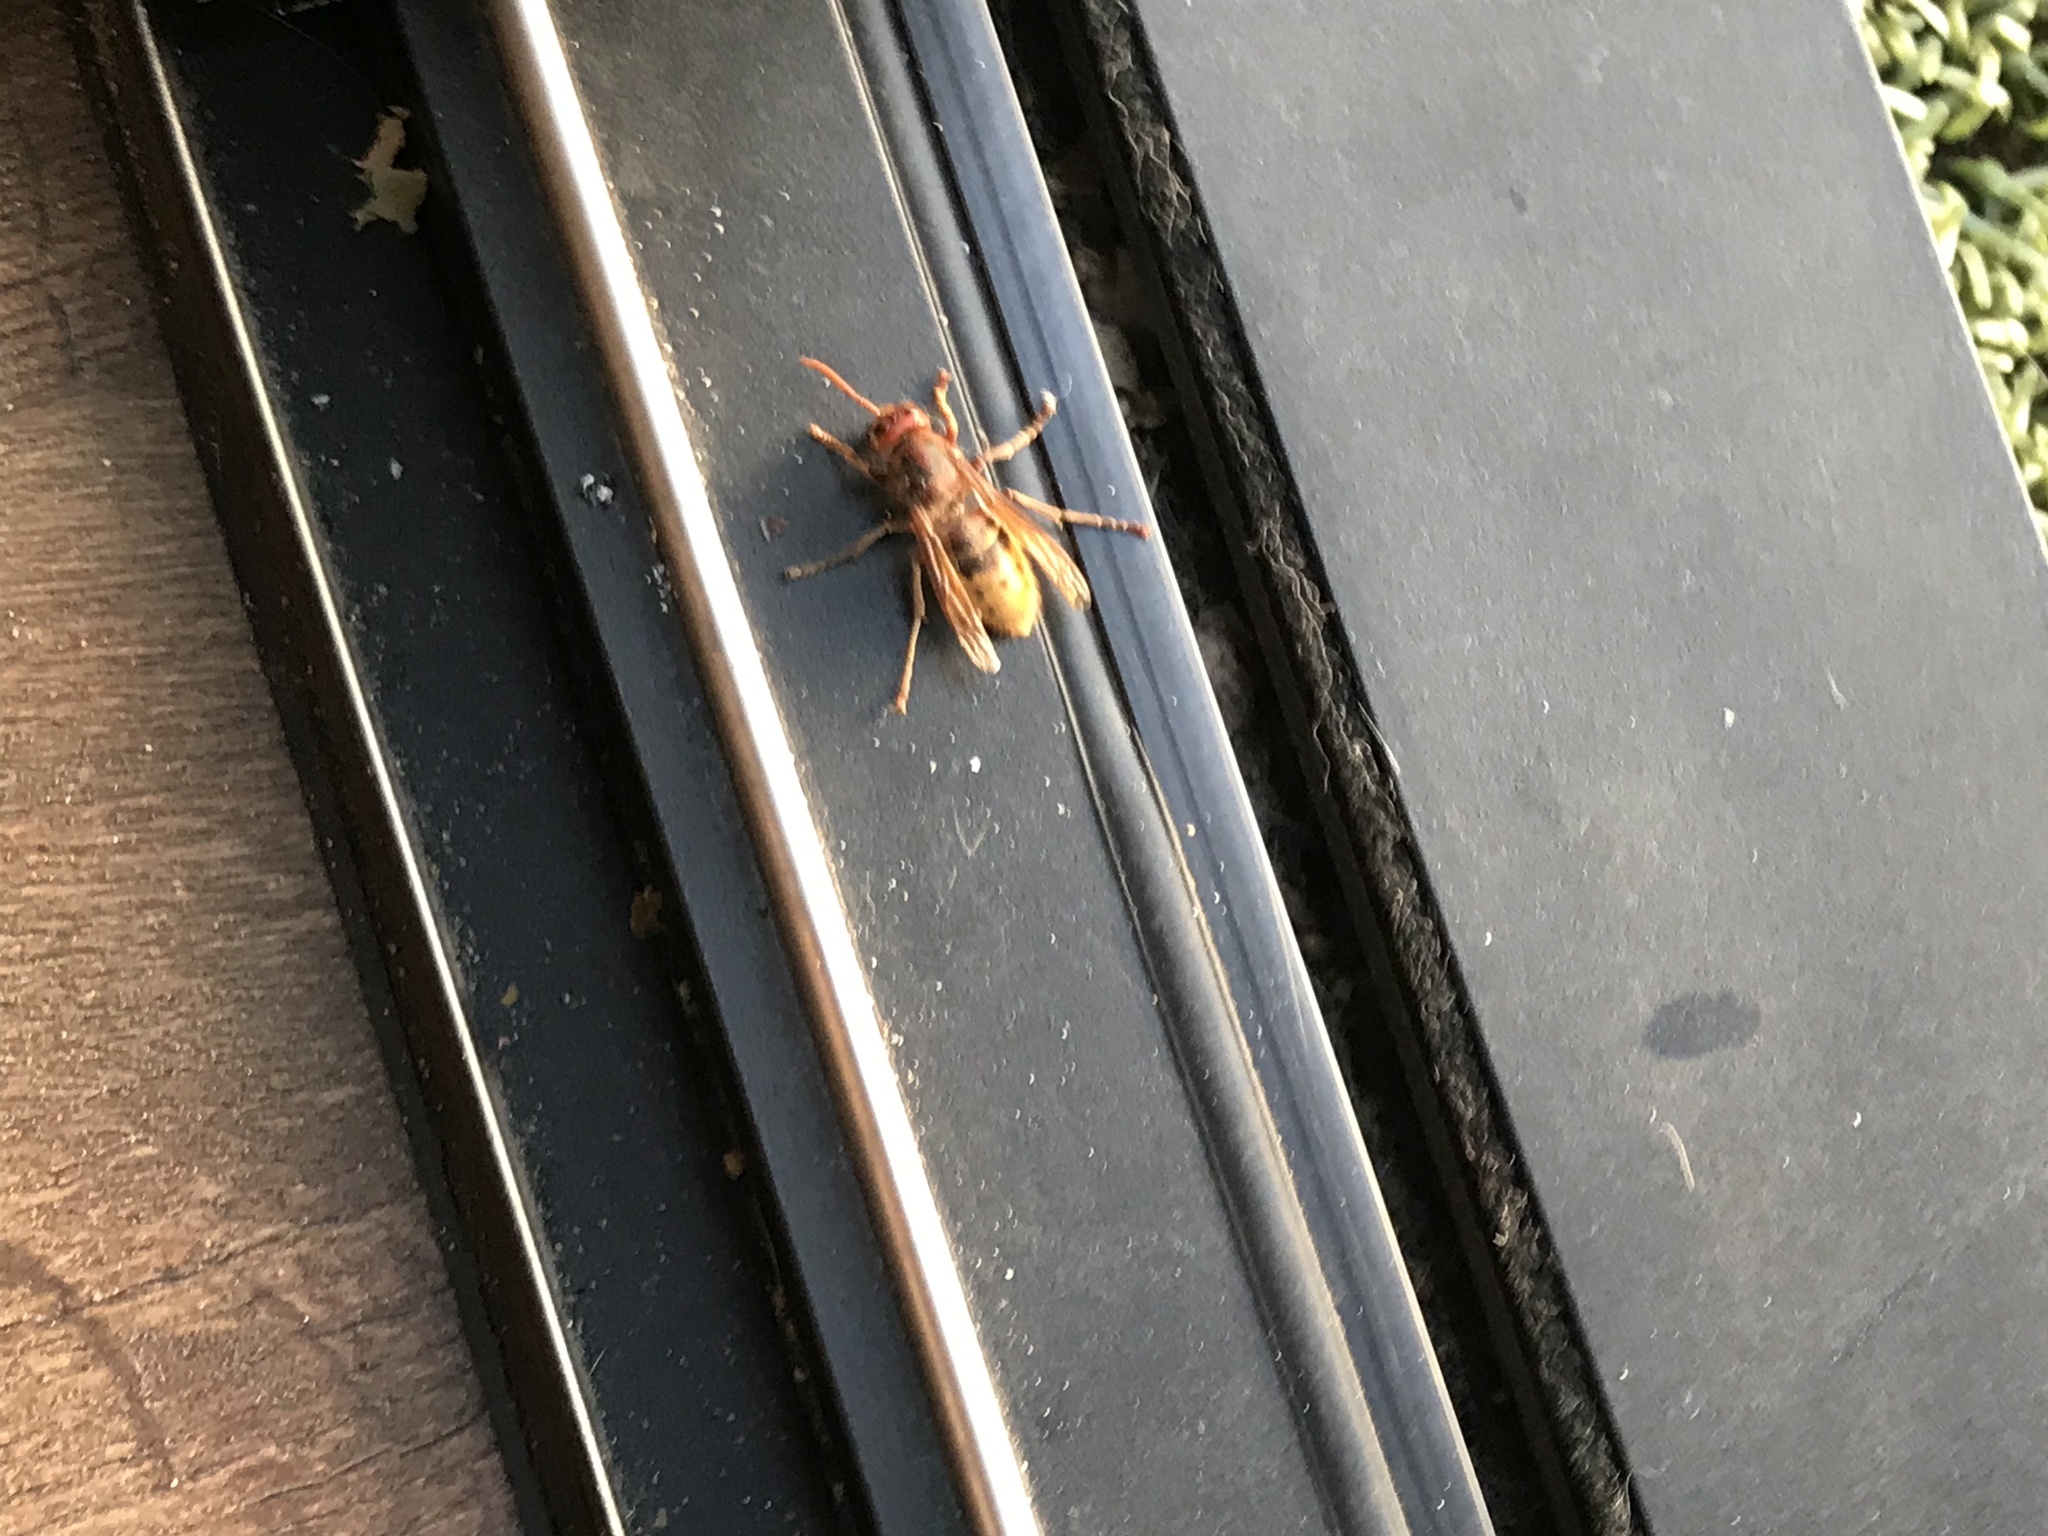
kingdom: Animalia
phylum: Arthropoda
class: Insecta
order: Hymenoptera
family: Vespidae
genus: Vespa
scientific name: Vespa crabro
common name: Hornet
